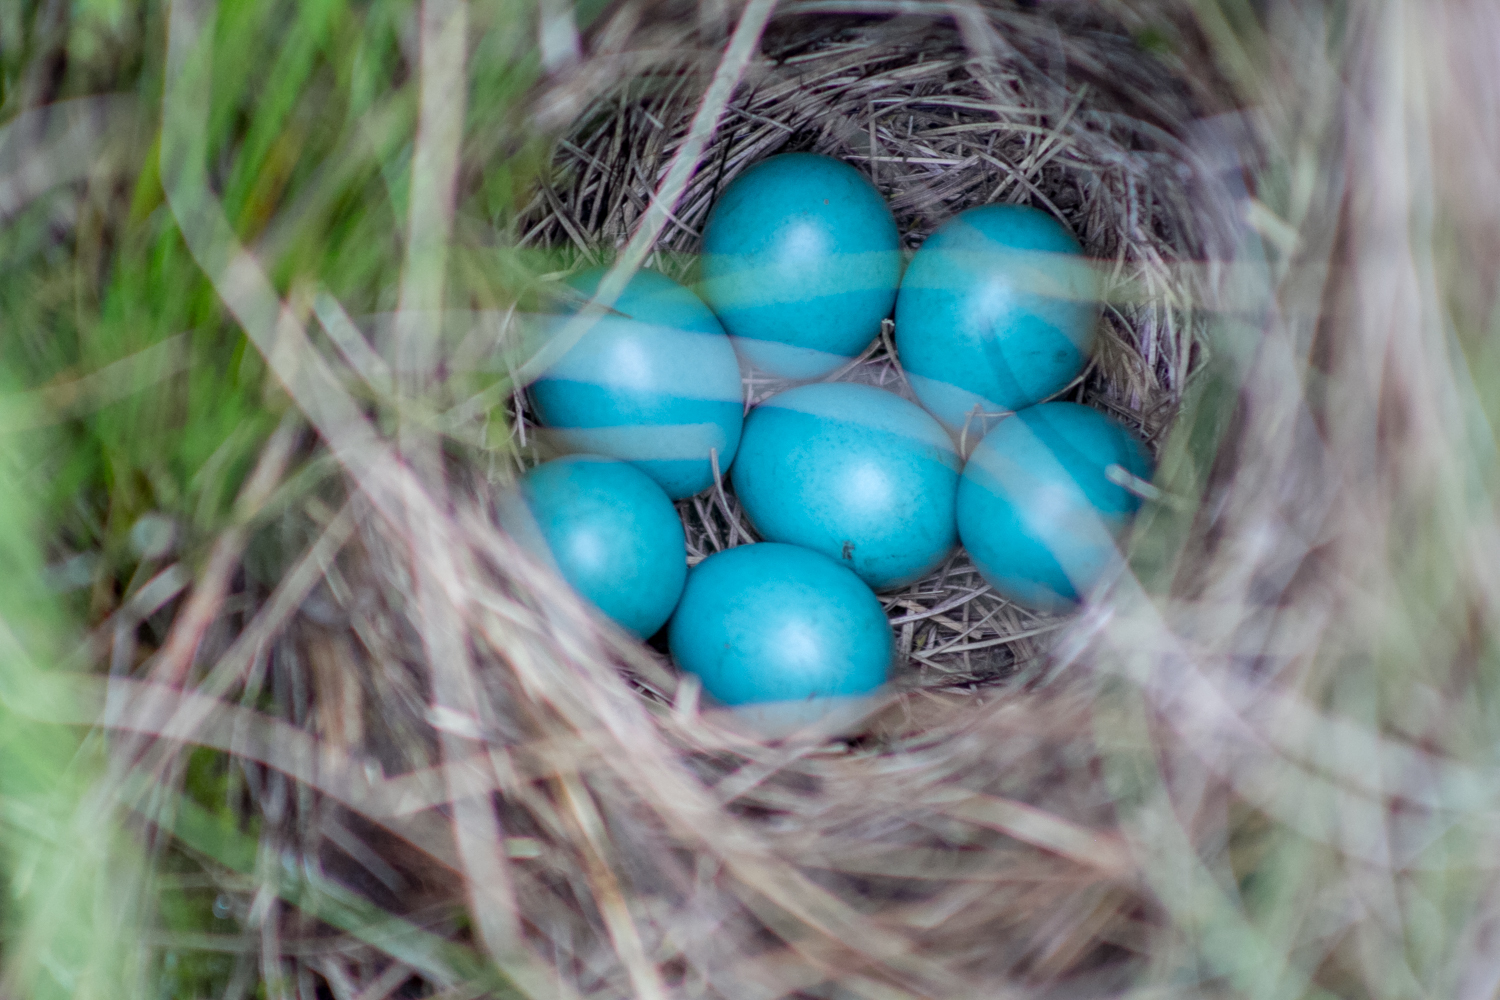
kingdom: Animalia
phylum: Chordata
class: Aves
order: Passeriformes
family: Muscicapidae
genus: Saxicola
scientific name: Saxicola rubetra
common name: Whinchat
